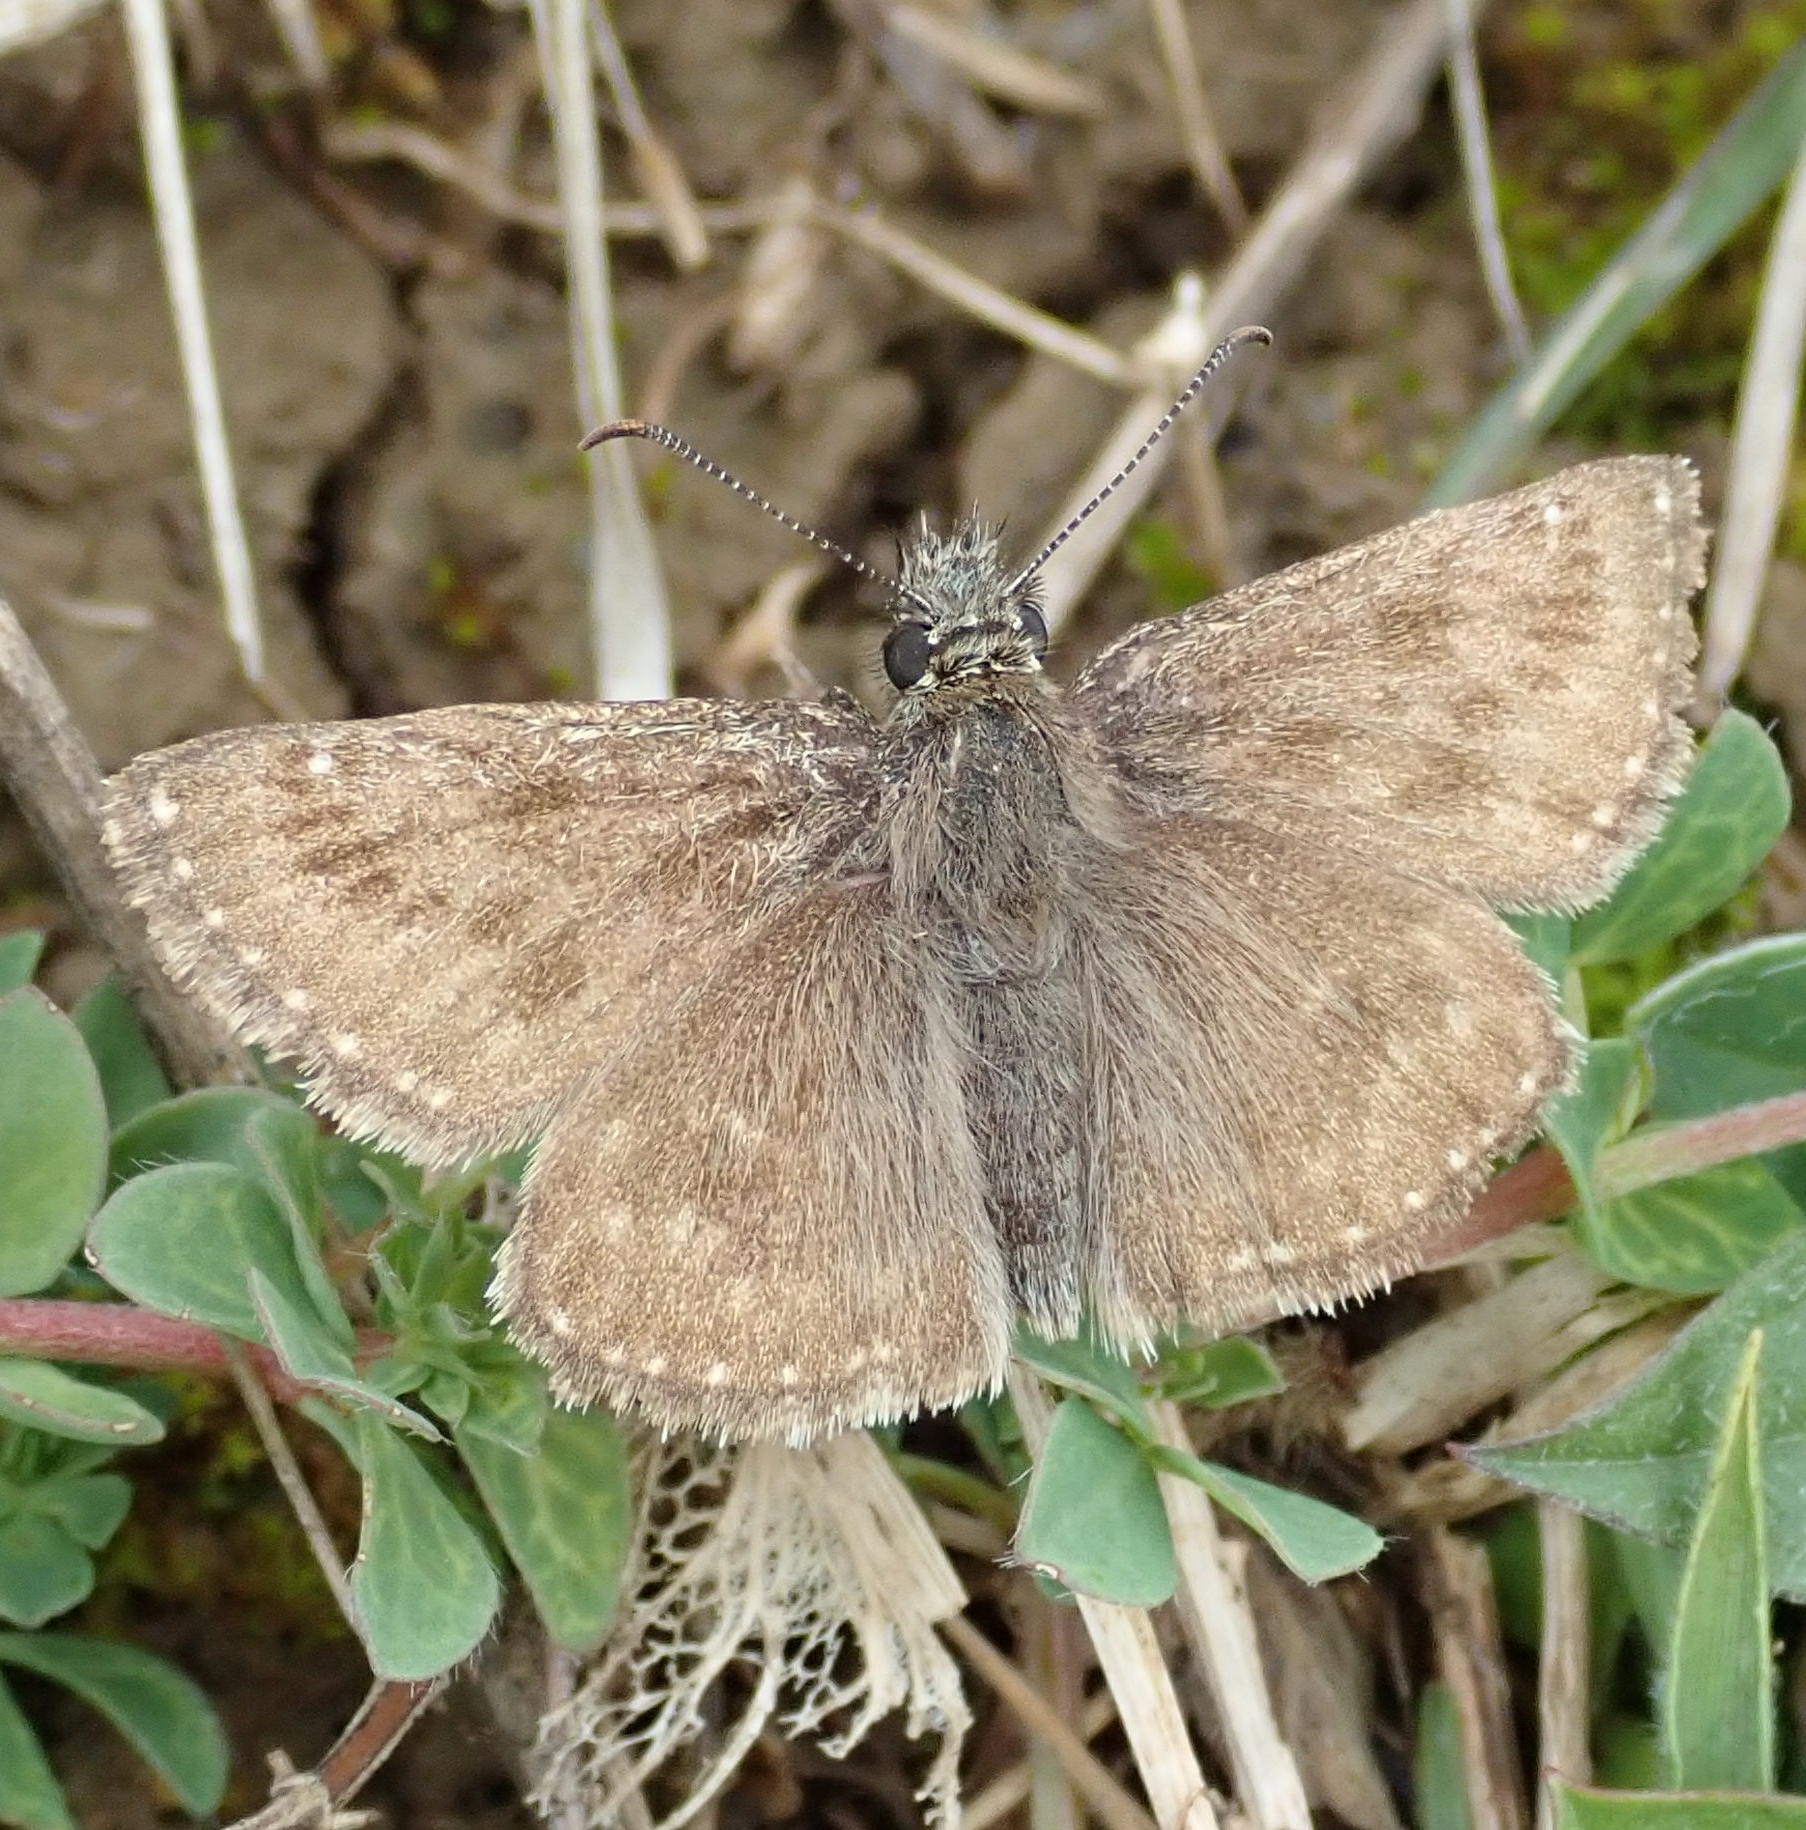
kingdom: Animalia
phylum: Arthropoda
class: Insecta
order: Lepidoptera
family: Hesperiidae
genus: Erynnis
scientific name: Erynnis tages
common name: Dingy skipper
